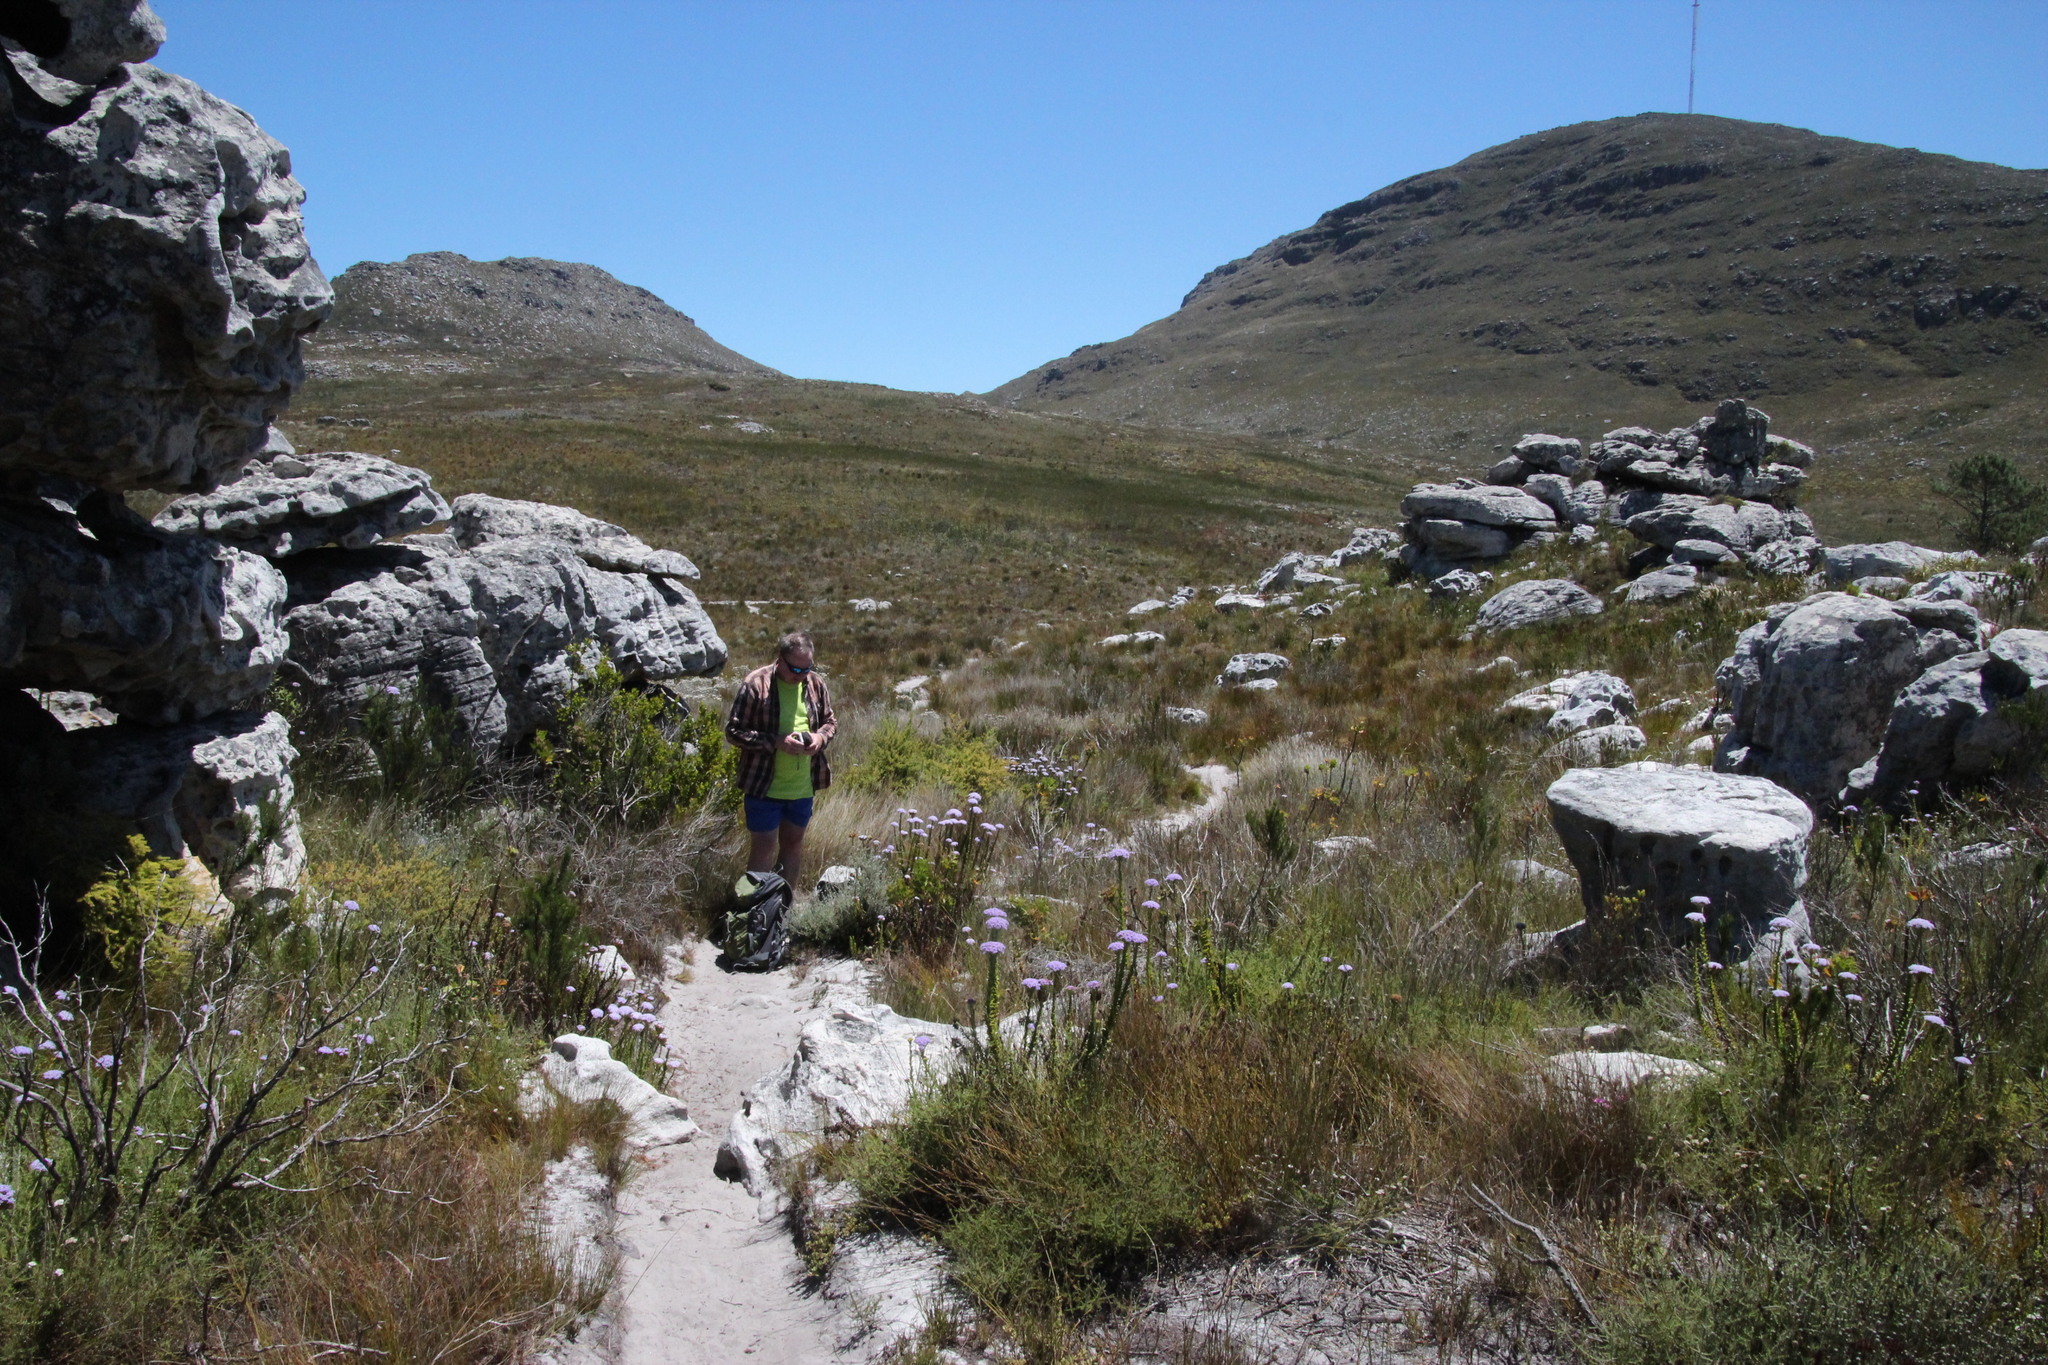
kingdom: Plantae
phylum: Tracheophyta
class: Magnoliopsida
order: Lamiales
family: Scrophulariaceae
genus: Pseudoselago
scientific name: Pseudoselago serrata
